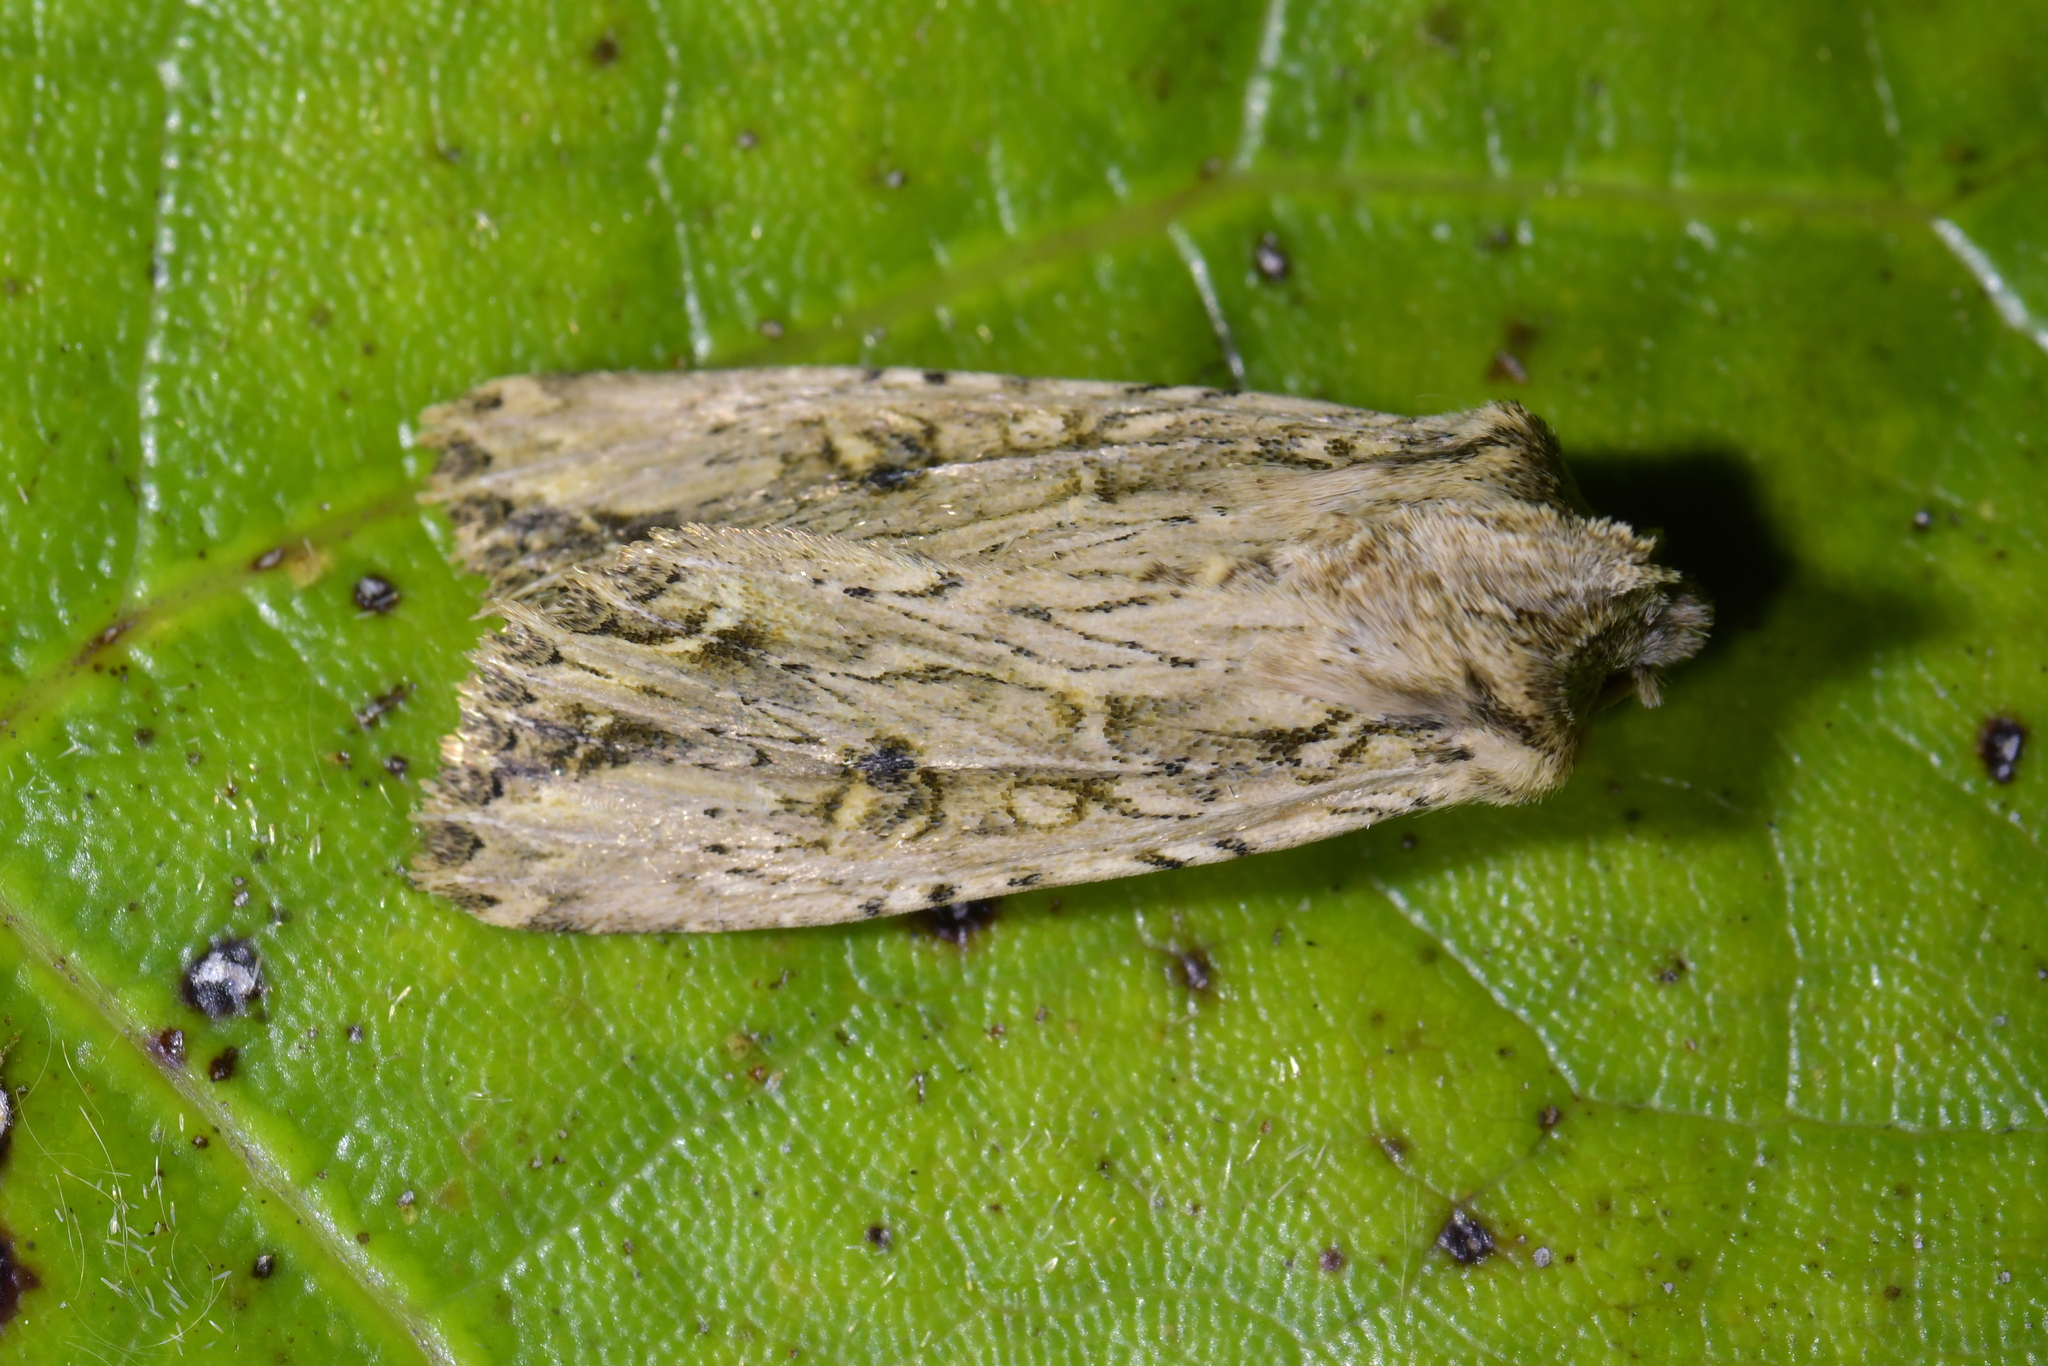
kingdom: Animalia
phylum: Arthropoda
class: Insecta
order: Lepidoptera
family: Noctuidae
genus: Ichneutica
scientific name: Ichneutica lignana
